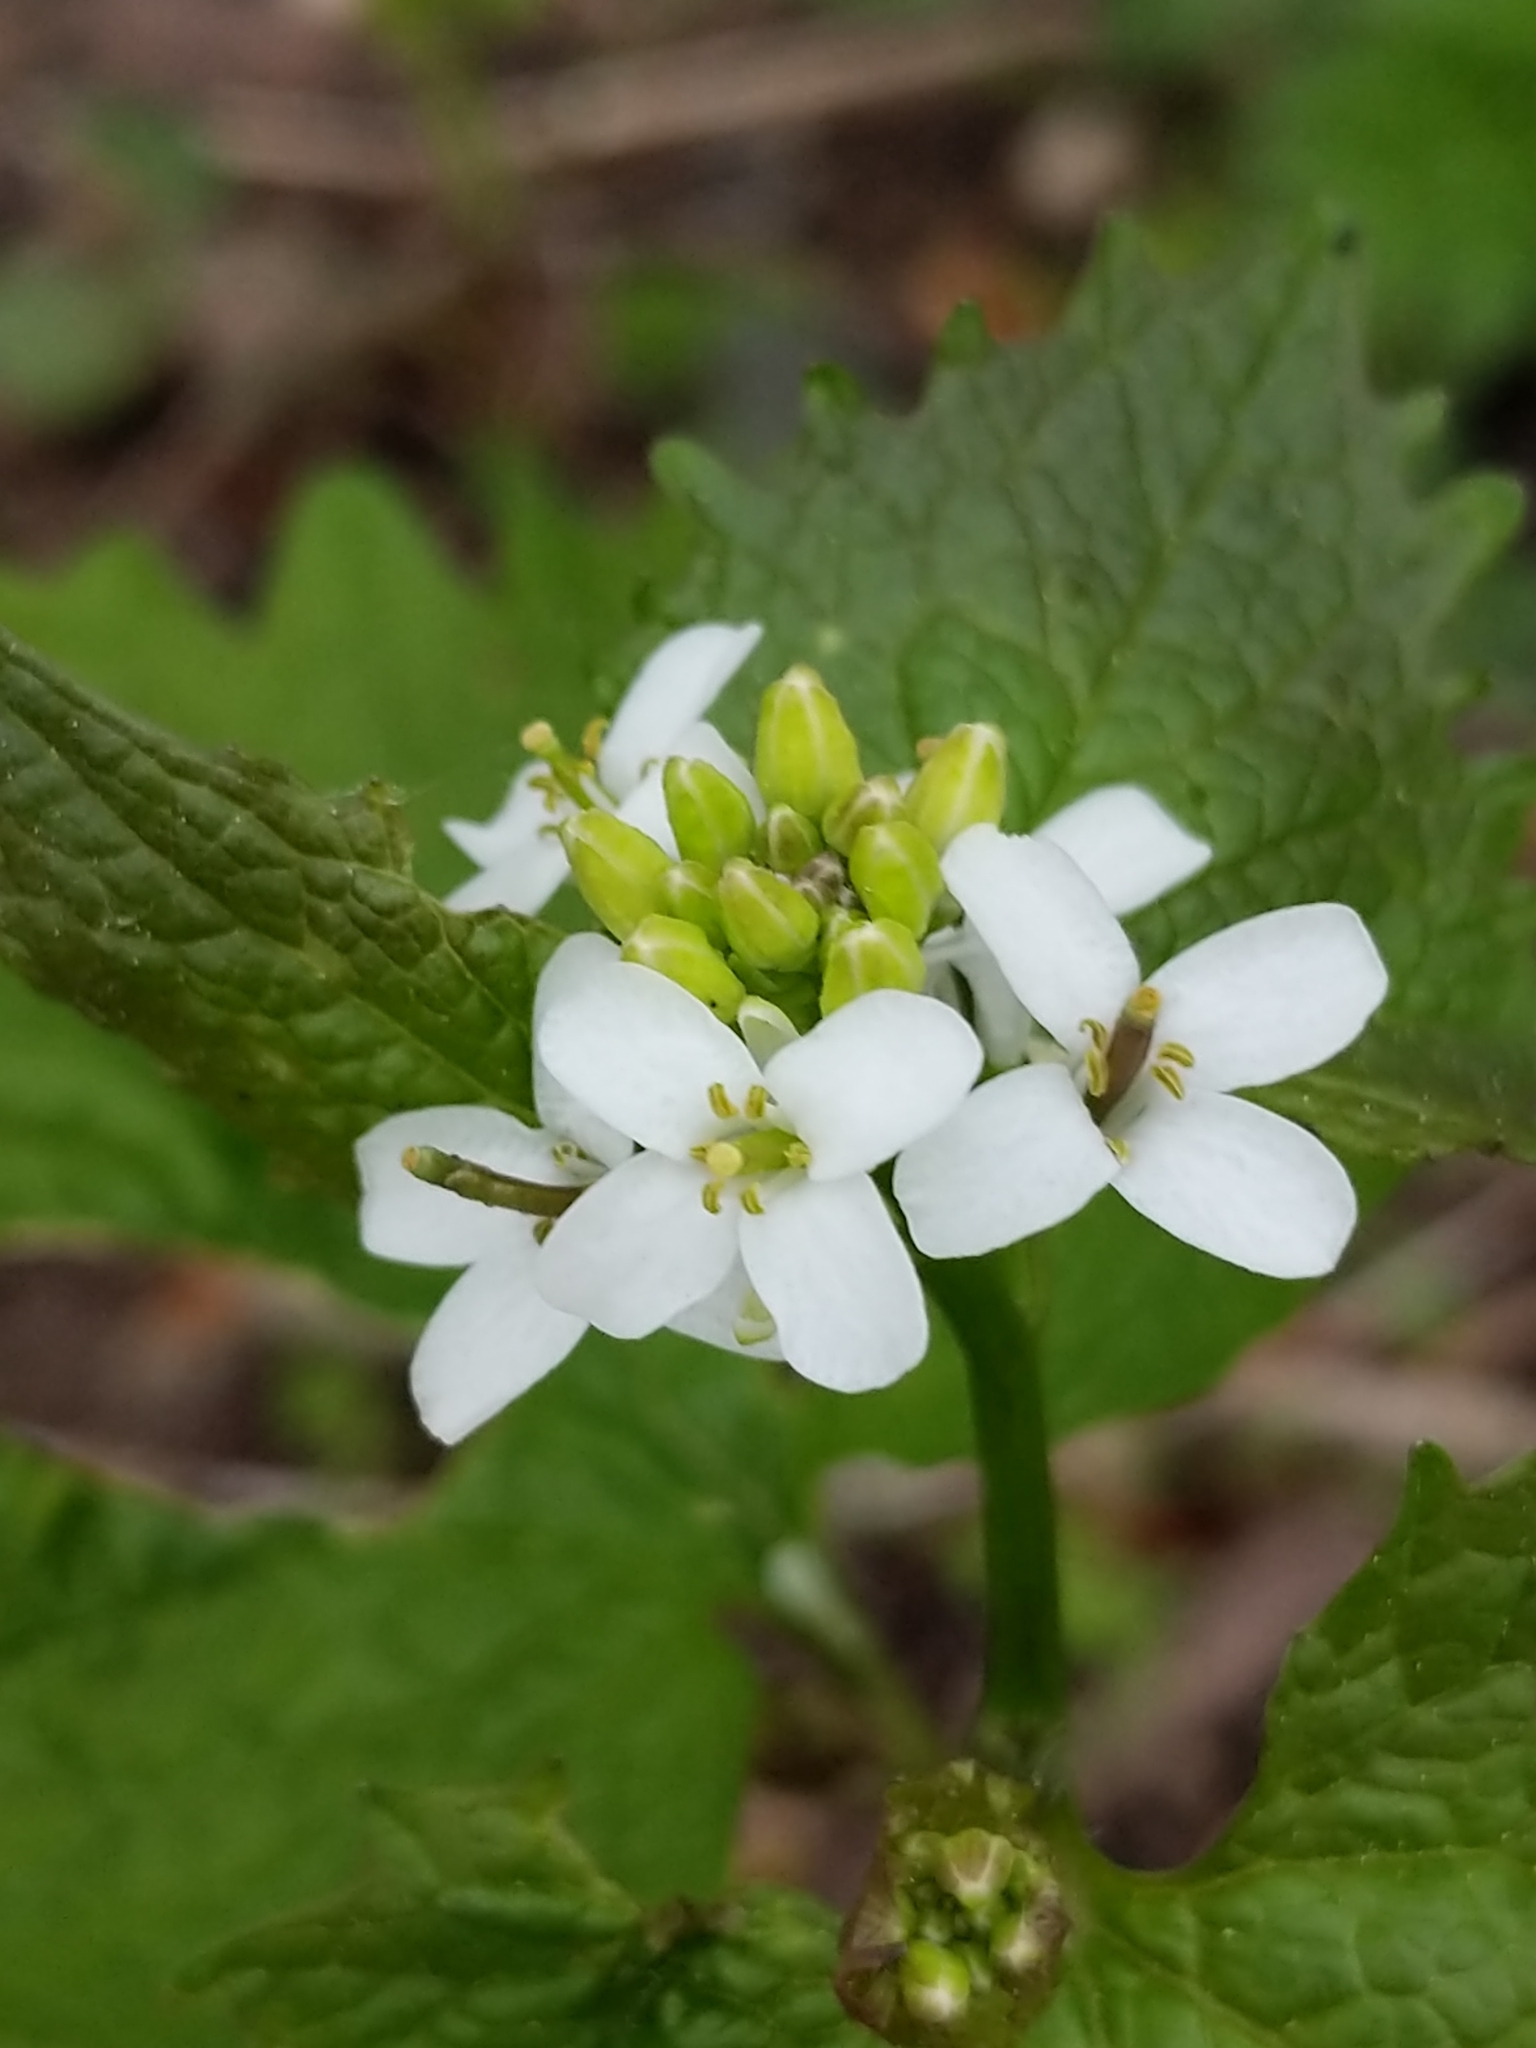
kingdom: Plantae
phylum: Tracheophyta
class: Magnoliopsida
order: Brassicales
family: Brassicaceae
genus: Alliaria
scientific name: Alliaria petiolata
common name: Garlic mustard
